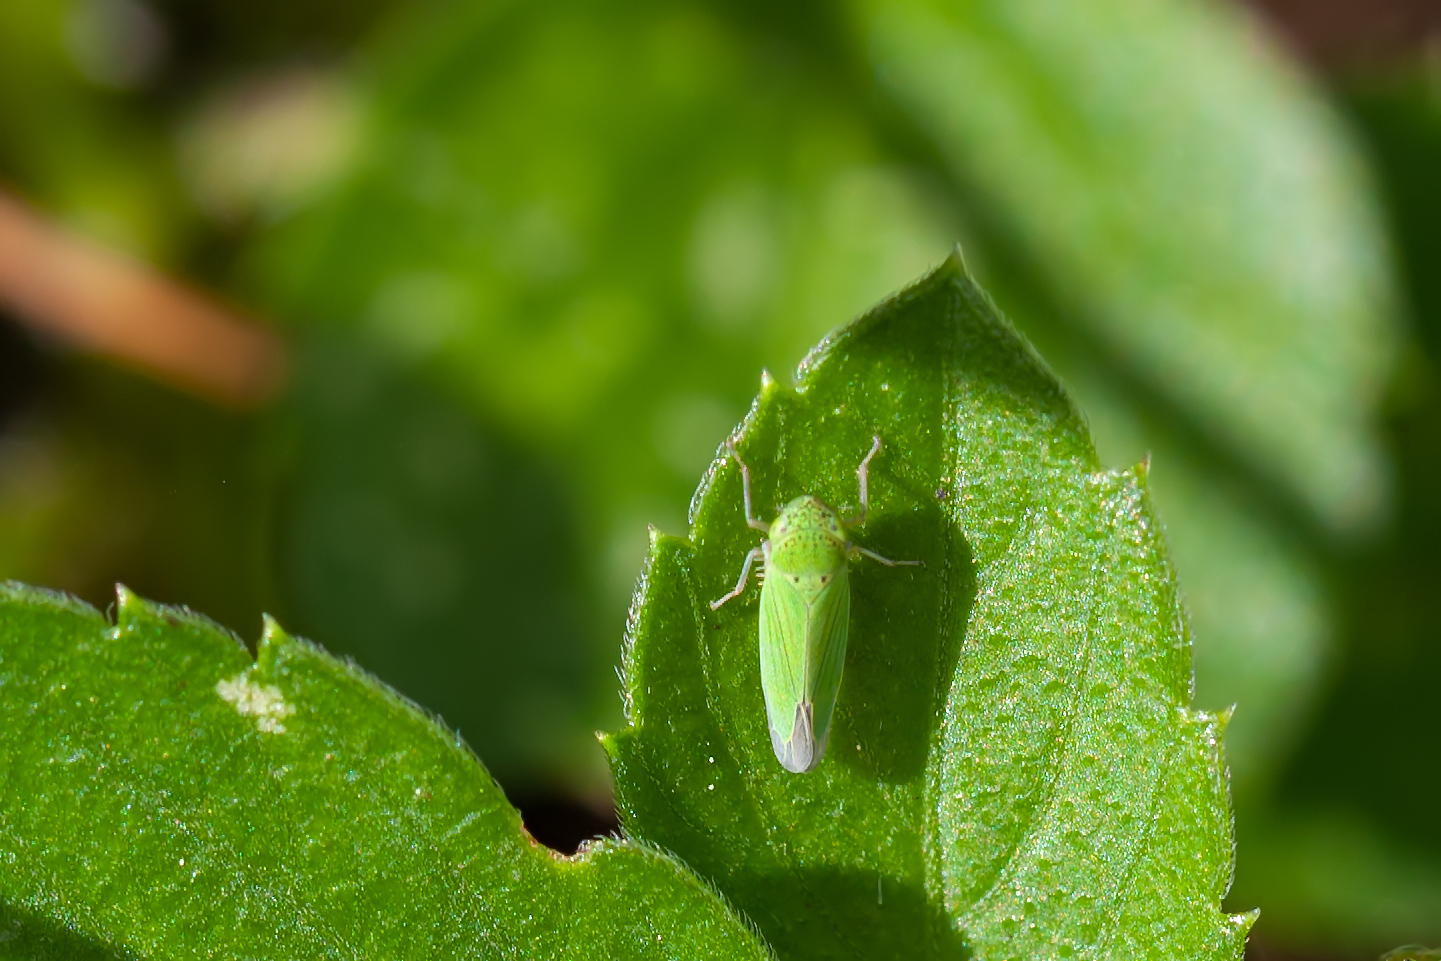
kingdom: Animalia
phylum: Arthropoda
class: Insecta
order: Hemiptera
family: Cicadellidae
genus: Hortensia
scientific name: Hortensia similis
